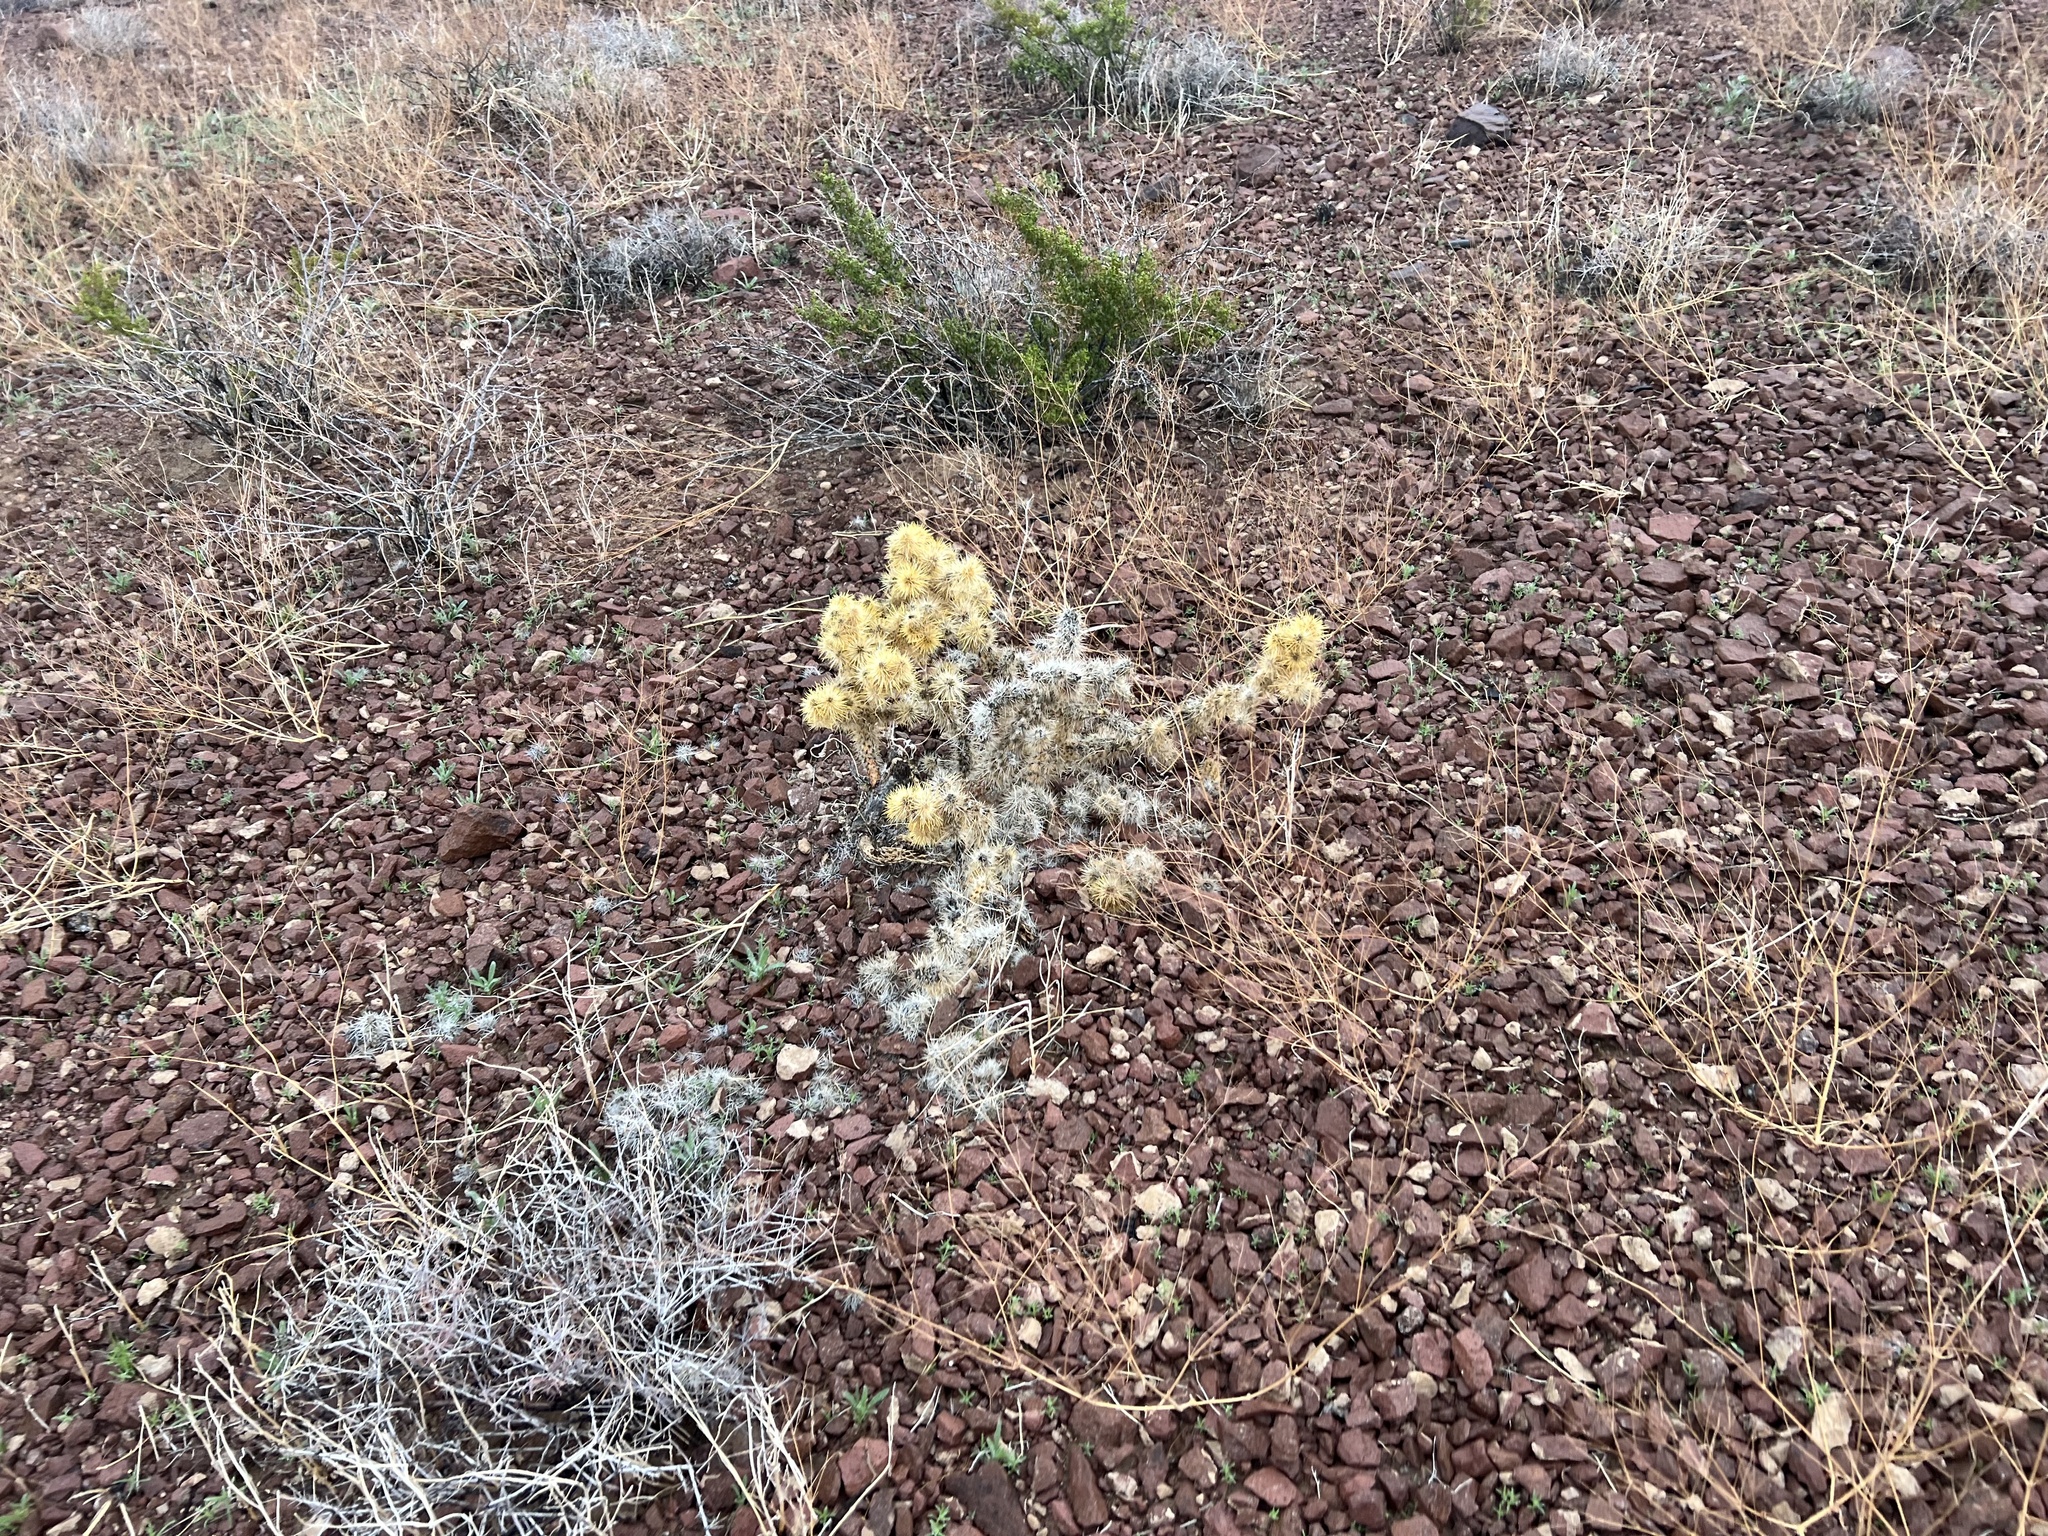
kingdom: Plantae
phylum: Tracheophyta
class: Magnoliopsida
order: Caryophyllales
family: Cactaceae
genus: Cylindropuntia
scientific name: Cylindropuntia echinocarpa
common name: Ground cholla
